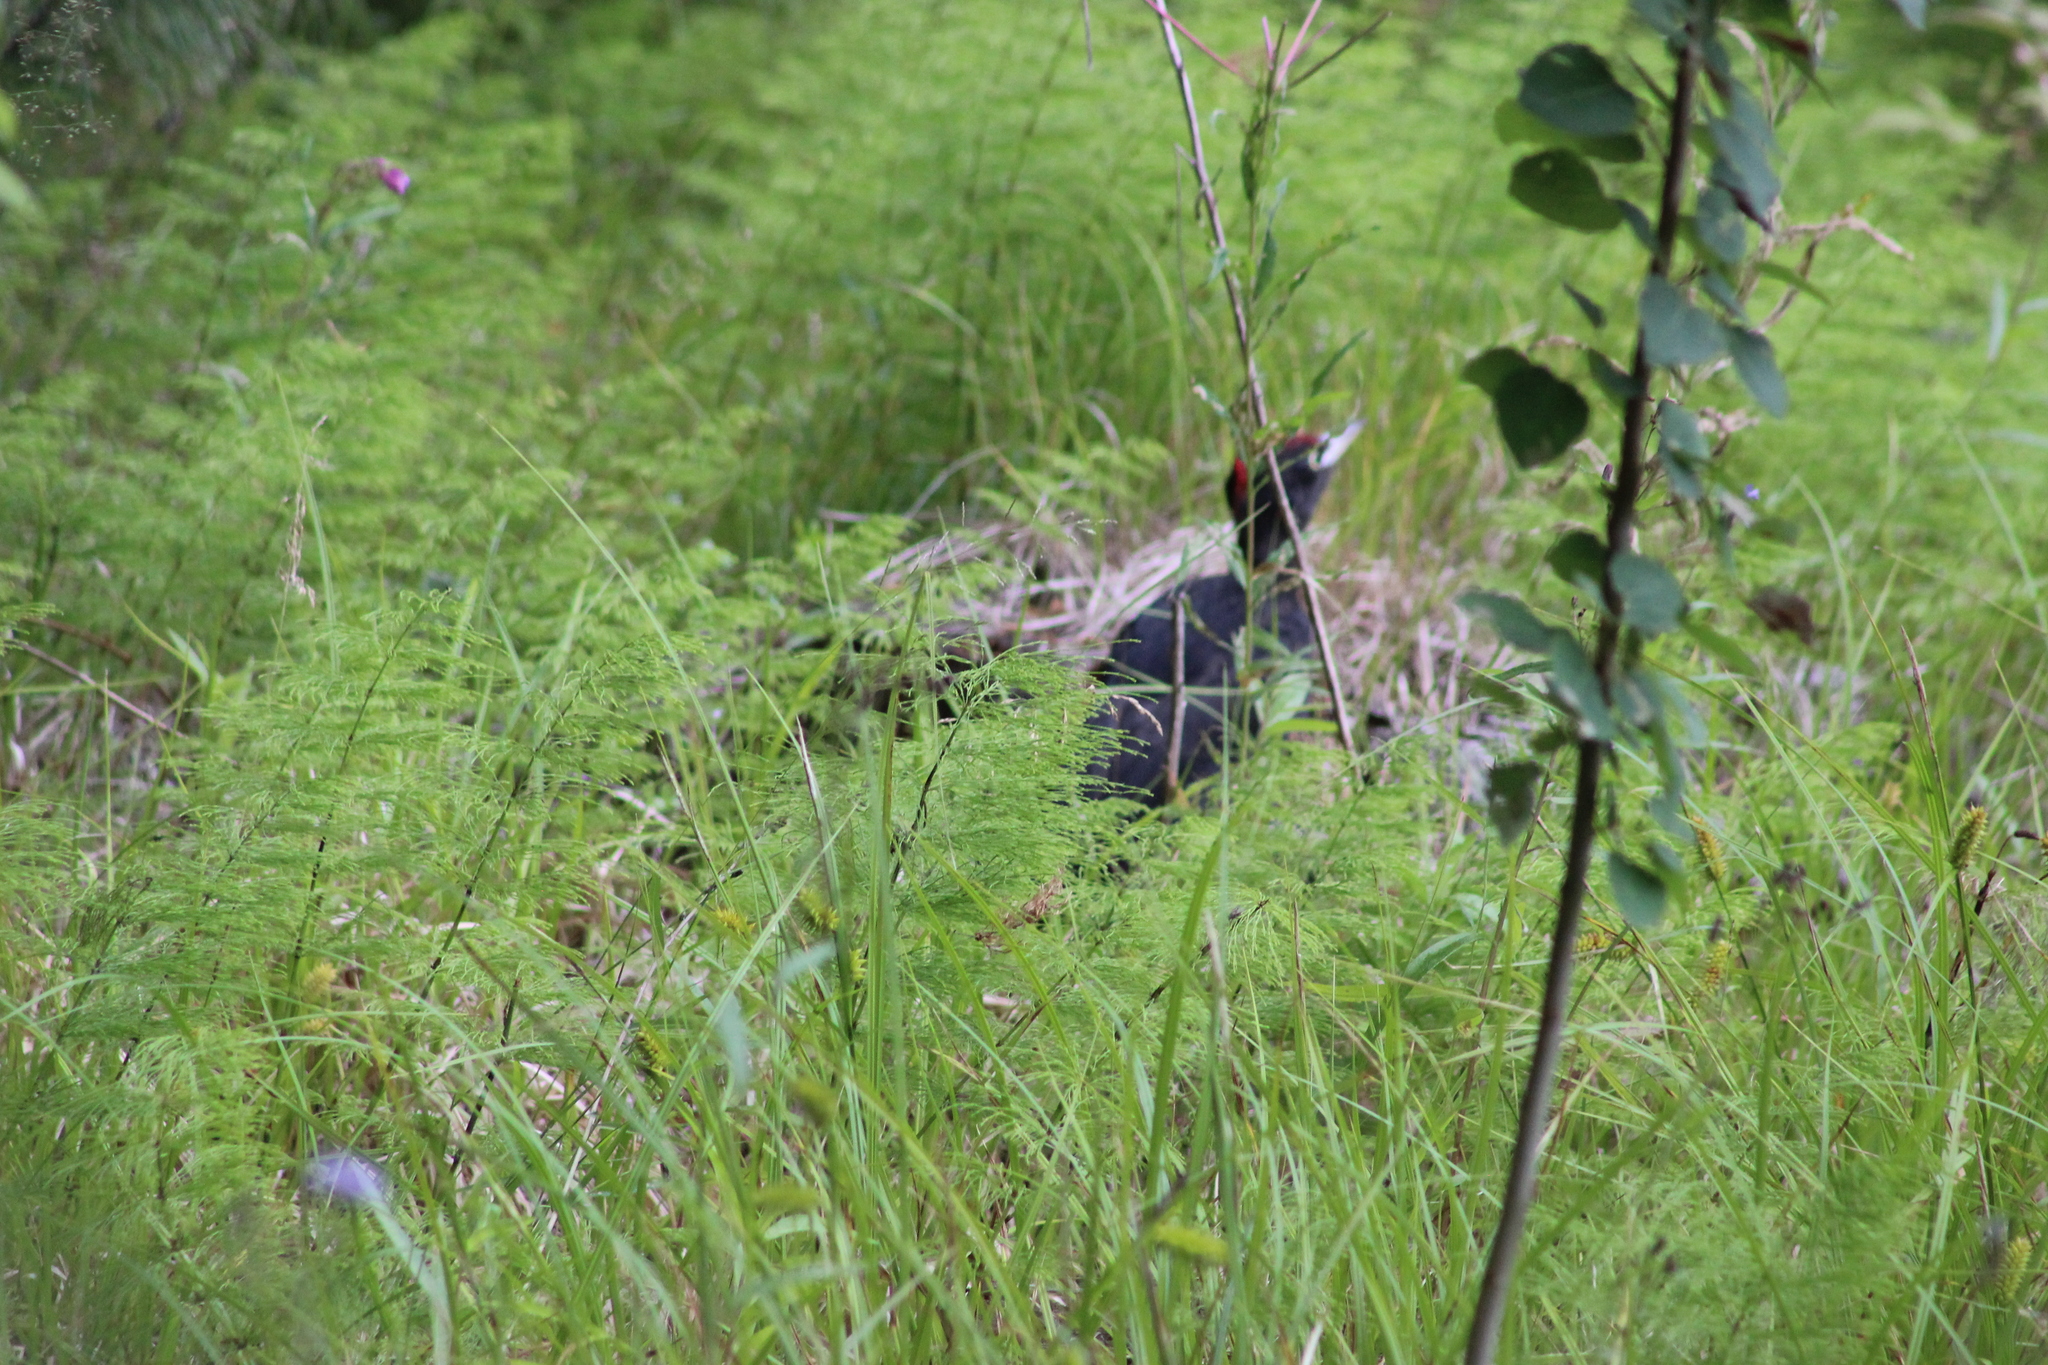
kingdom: Animalia
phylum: Chordata
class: Aves
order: Piciformes
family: Picidae
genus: Dryocopus
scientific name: Dryocopus martius
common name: Black woodpecker
